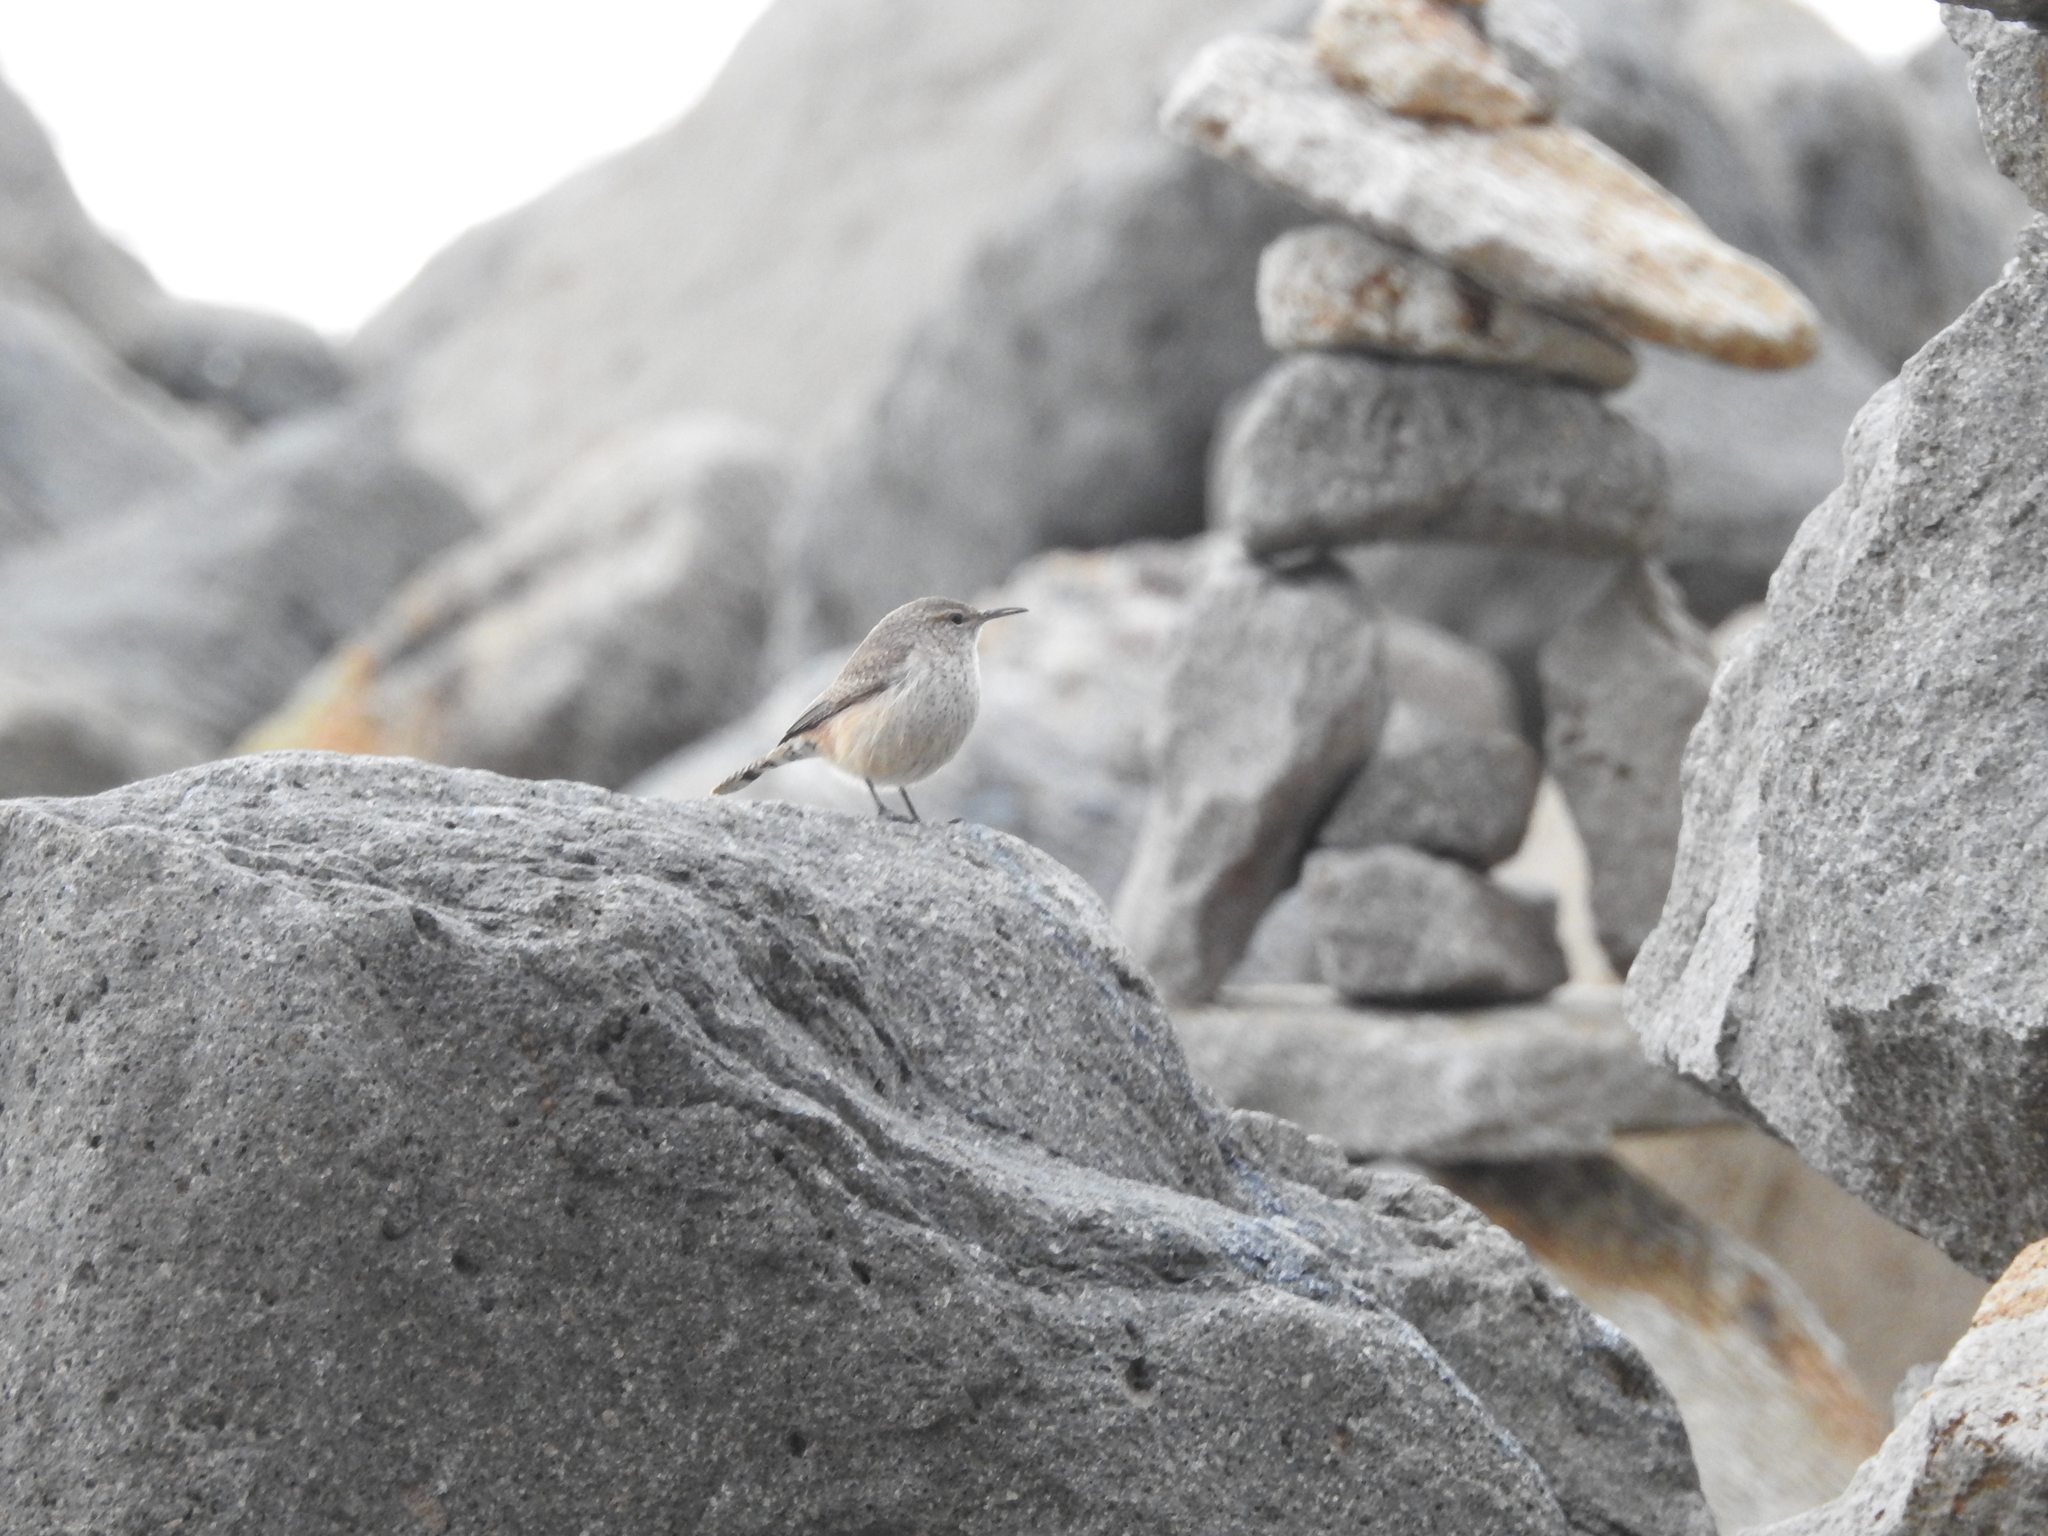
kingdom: Animalia
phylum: Chordata
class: Aves
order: Passeriformes
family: Troglodytidae
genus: Salpinctes
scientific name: Salpinctes obsoletus
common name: Rock wren
